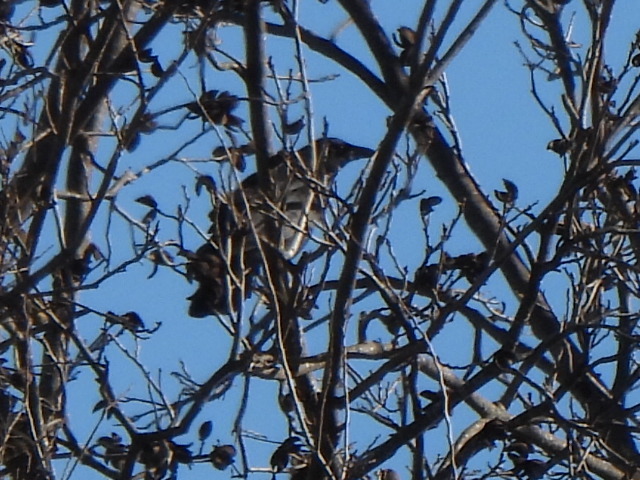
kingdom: Animalia
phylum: Chordata
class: Aves
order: Passeriformes
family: Corvidae
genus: Corvus
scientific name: Corvus brachyrhynchos
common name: American crow
